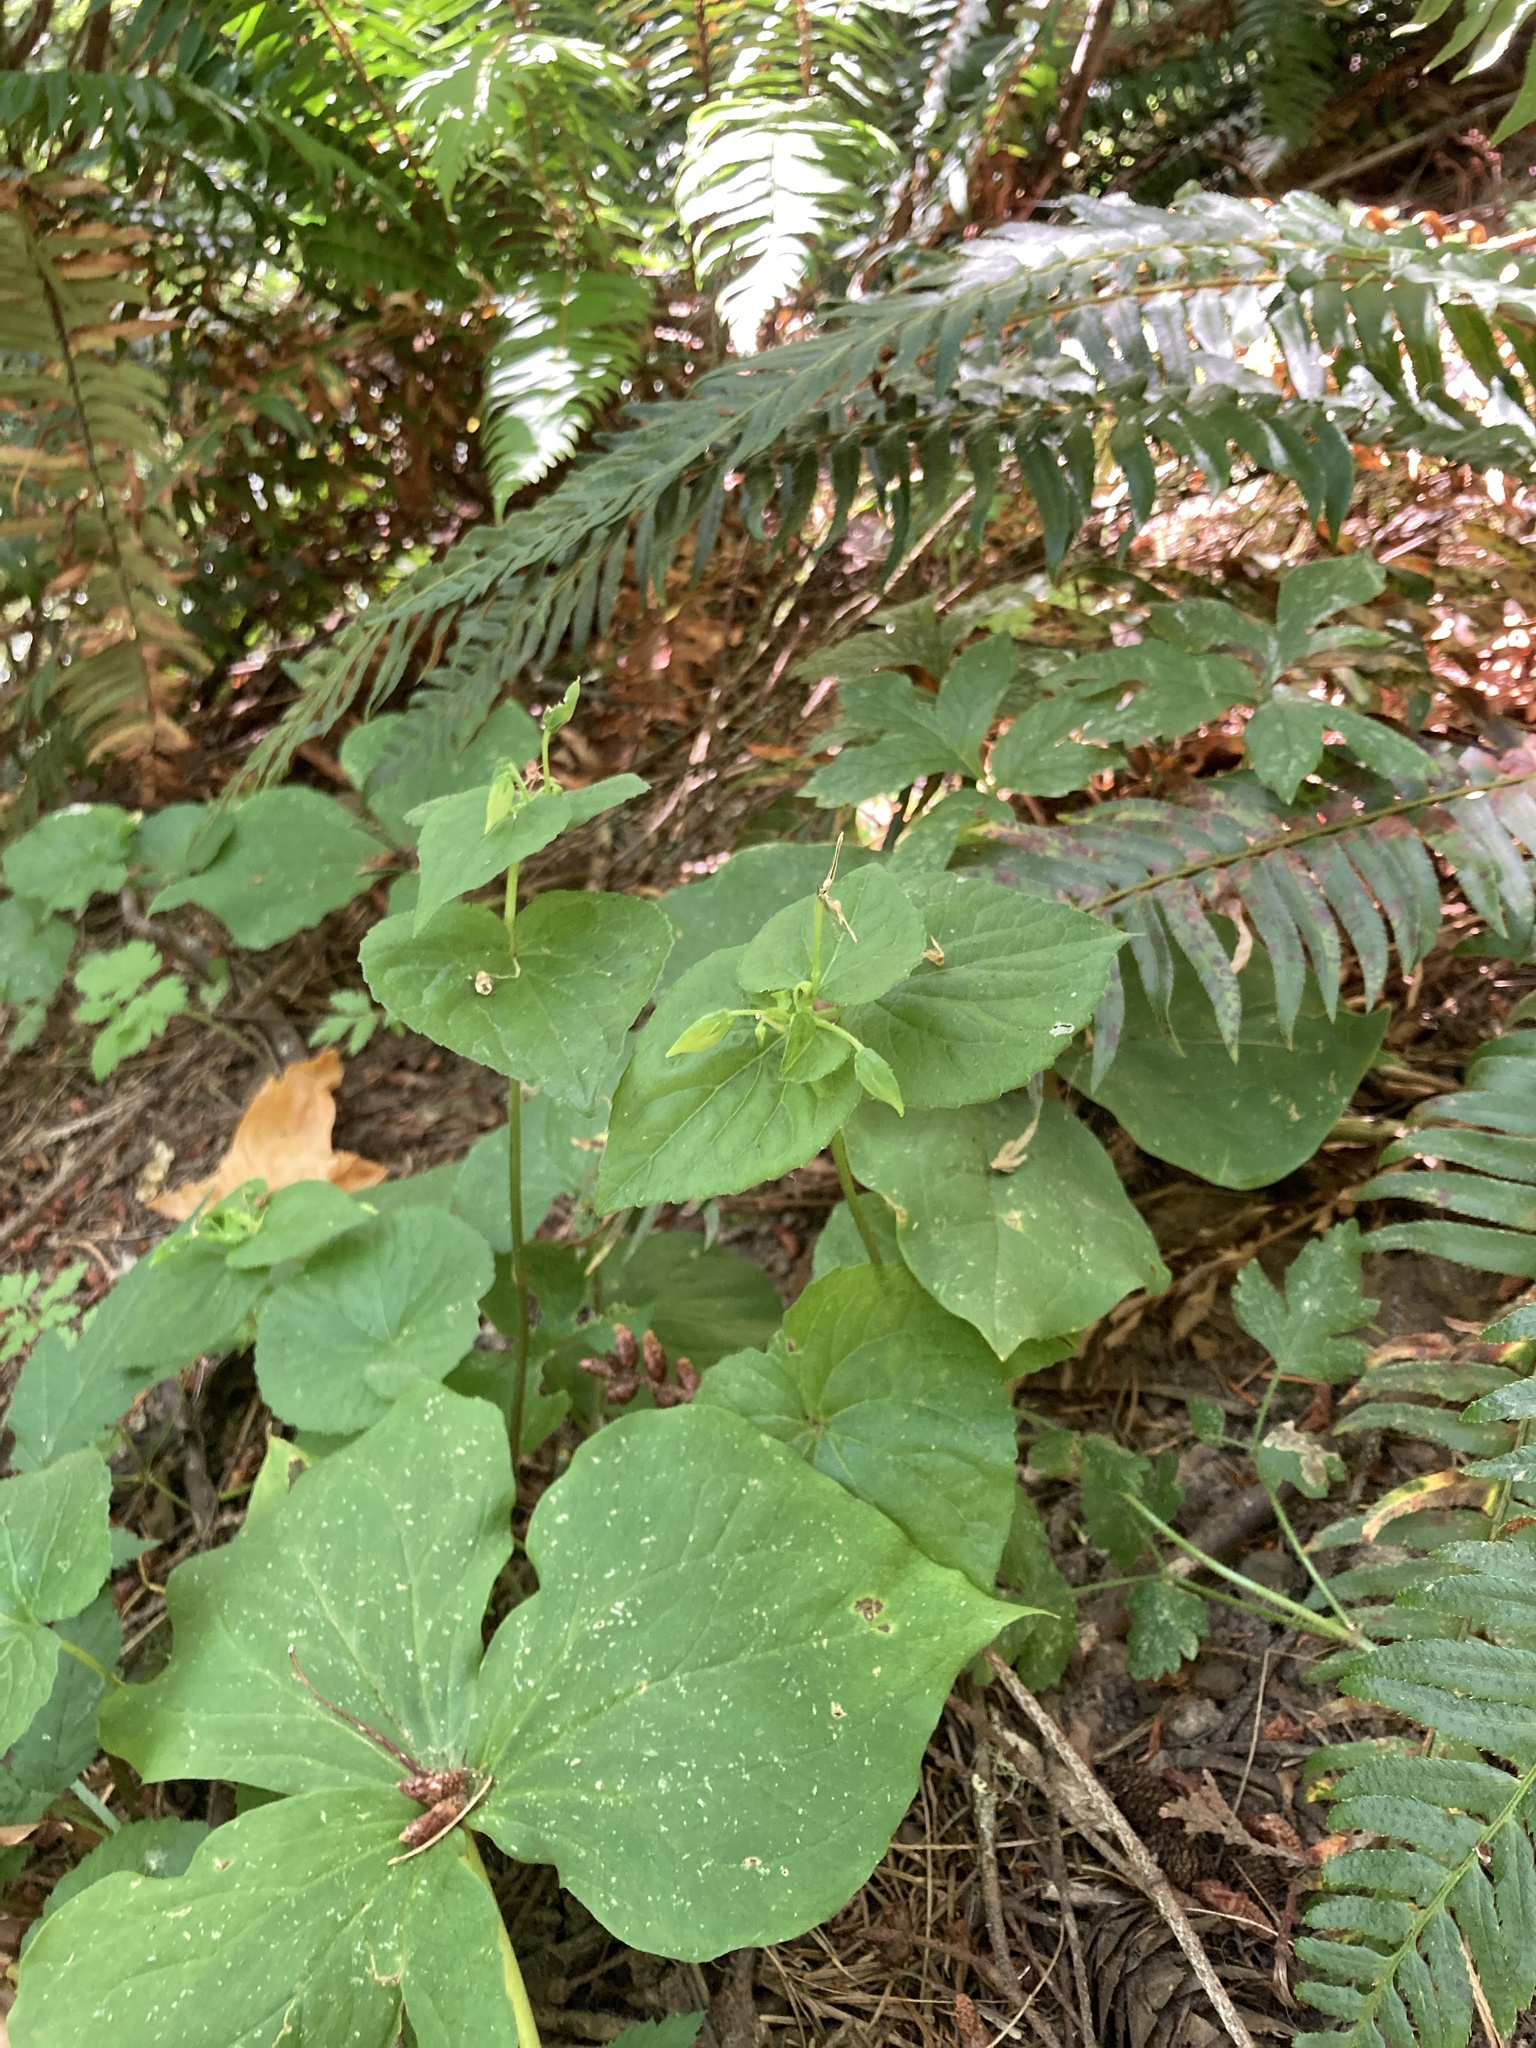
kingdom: Plantae
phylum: Tracheophyta
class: Magnoliopsida
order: Malpighiales
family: Violaceae
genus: Viola
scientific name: Viola glabella
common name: Stream violet
